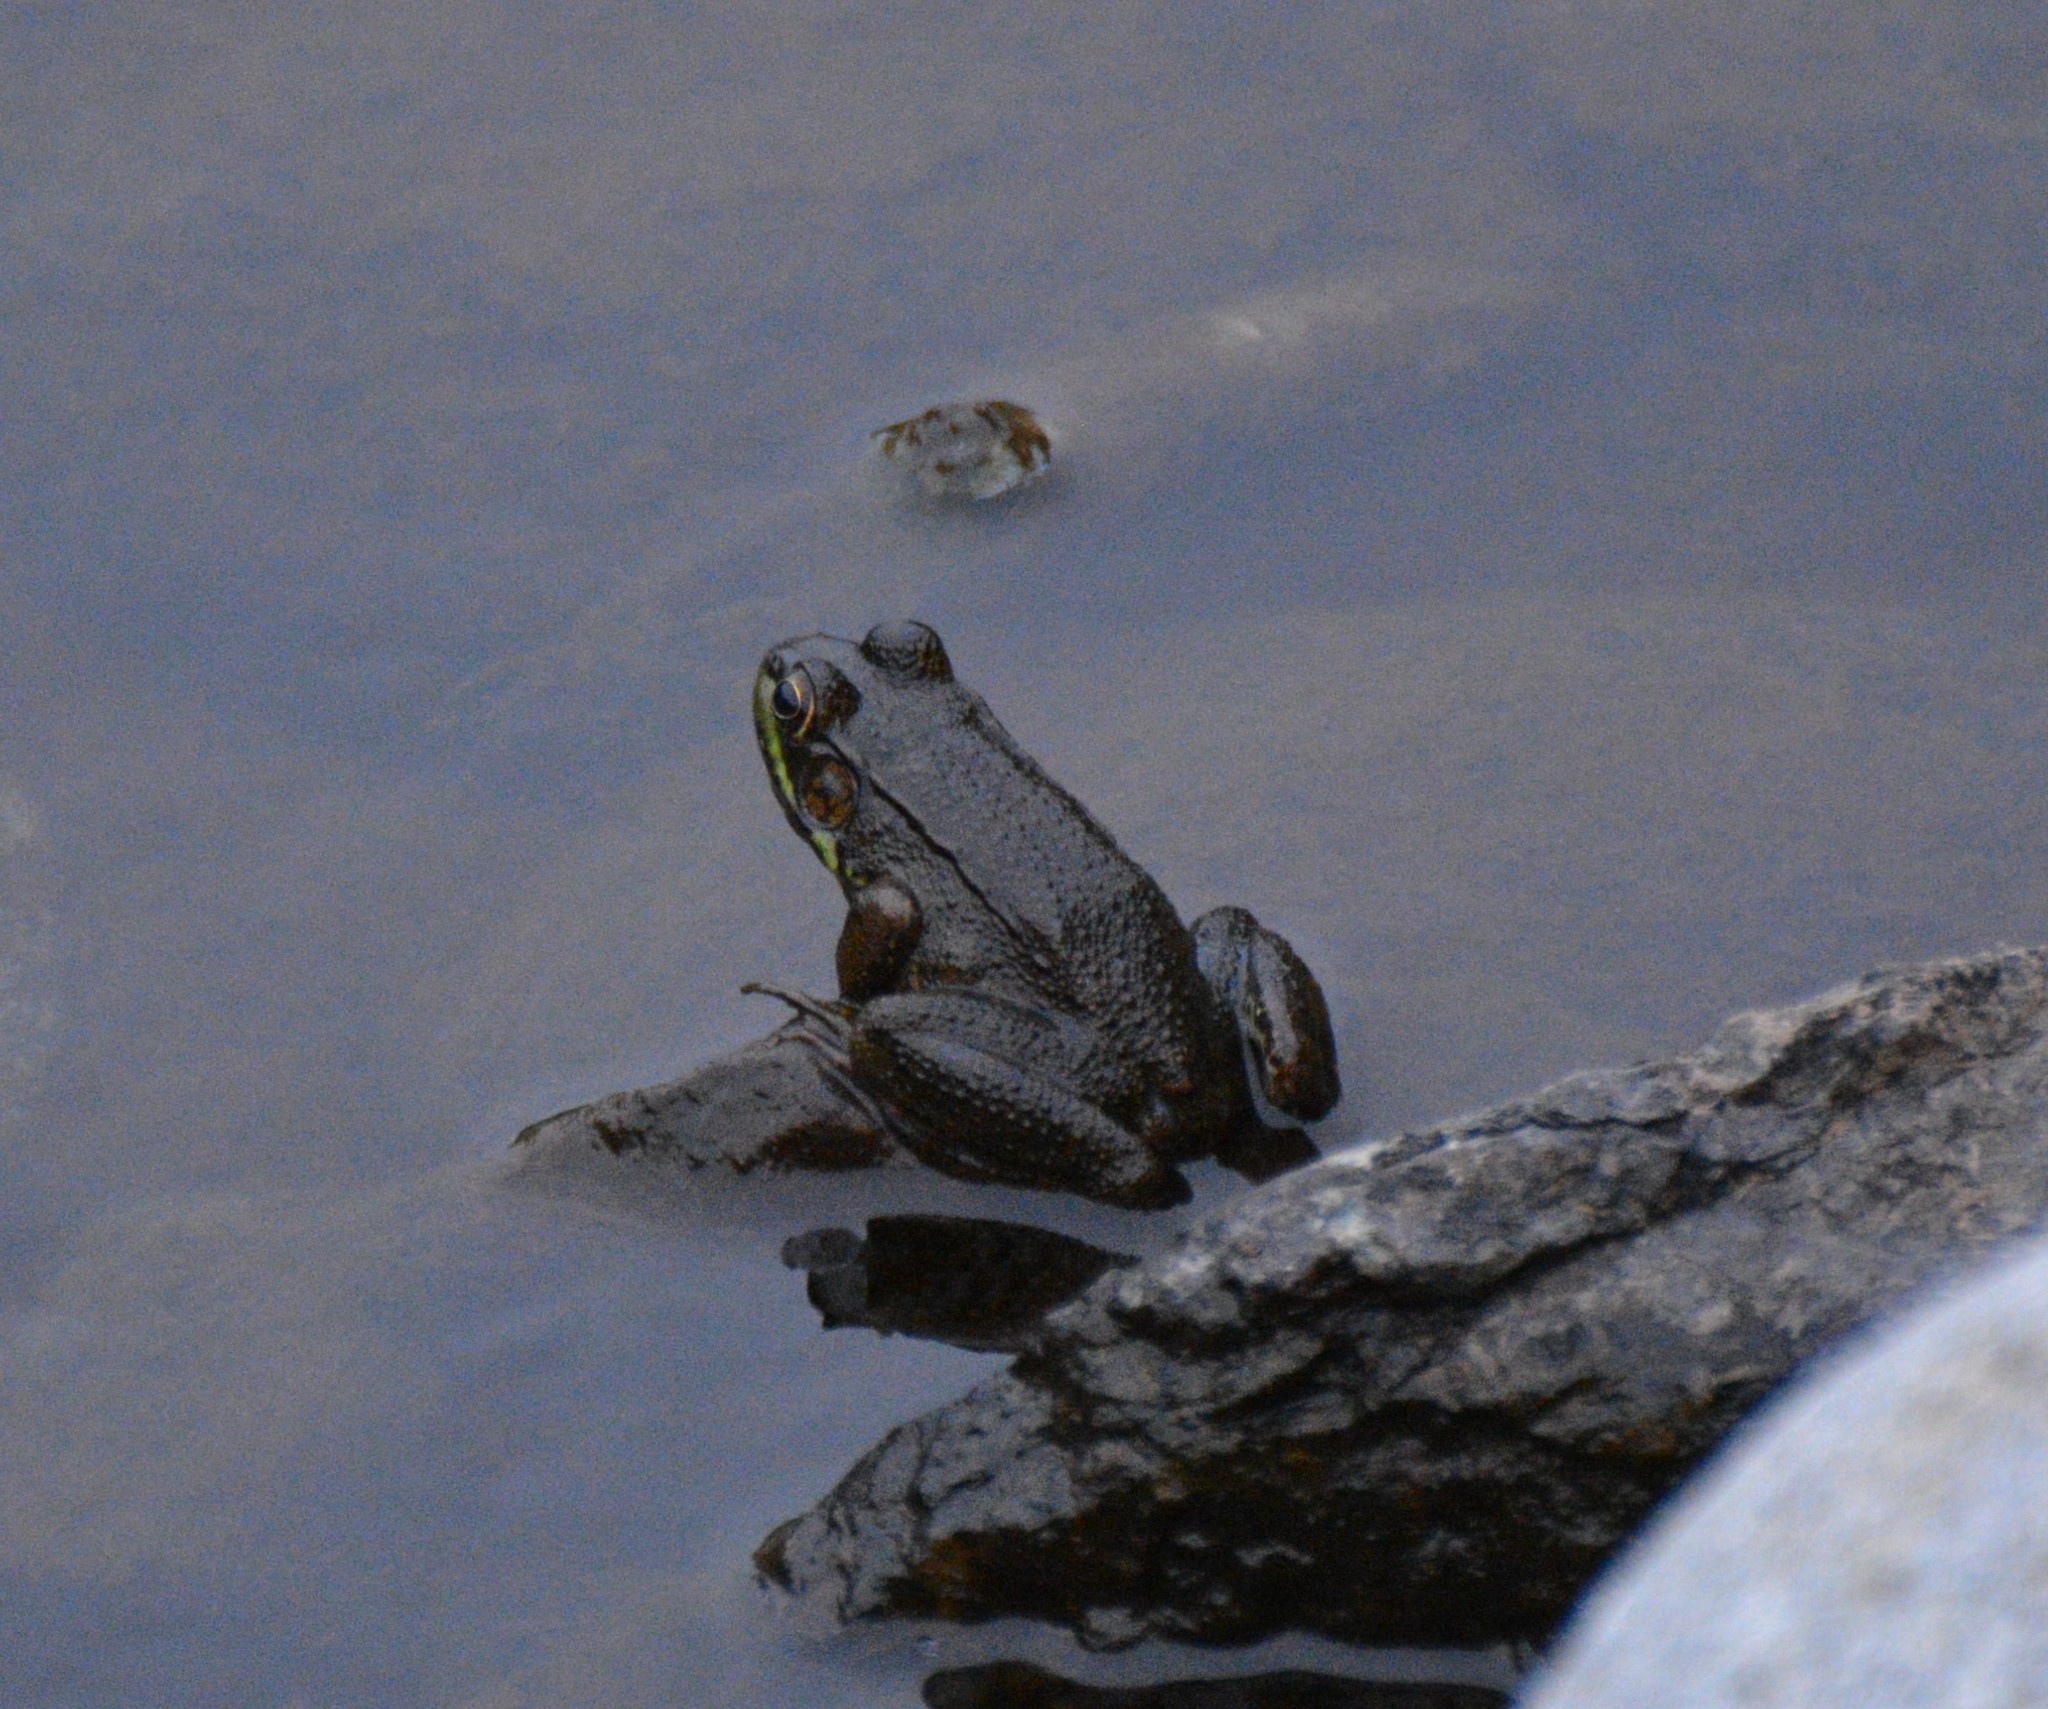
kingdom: Animalia
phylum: Chordata
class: Amphibia
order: Anura
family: Ranidae
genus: Lithobates
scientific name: Lithobates clamitans
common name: Green frog
